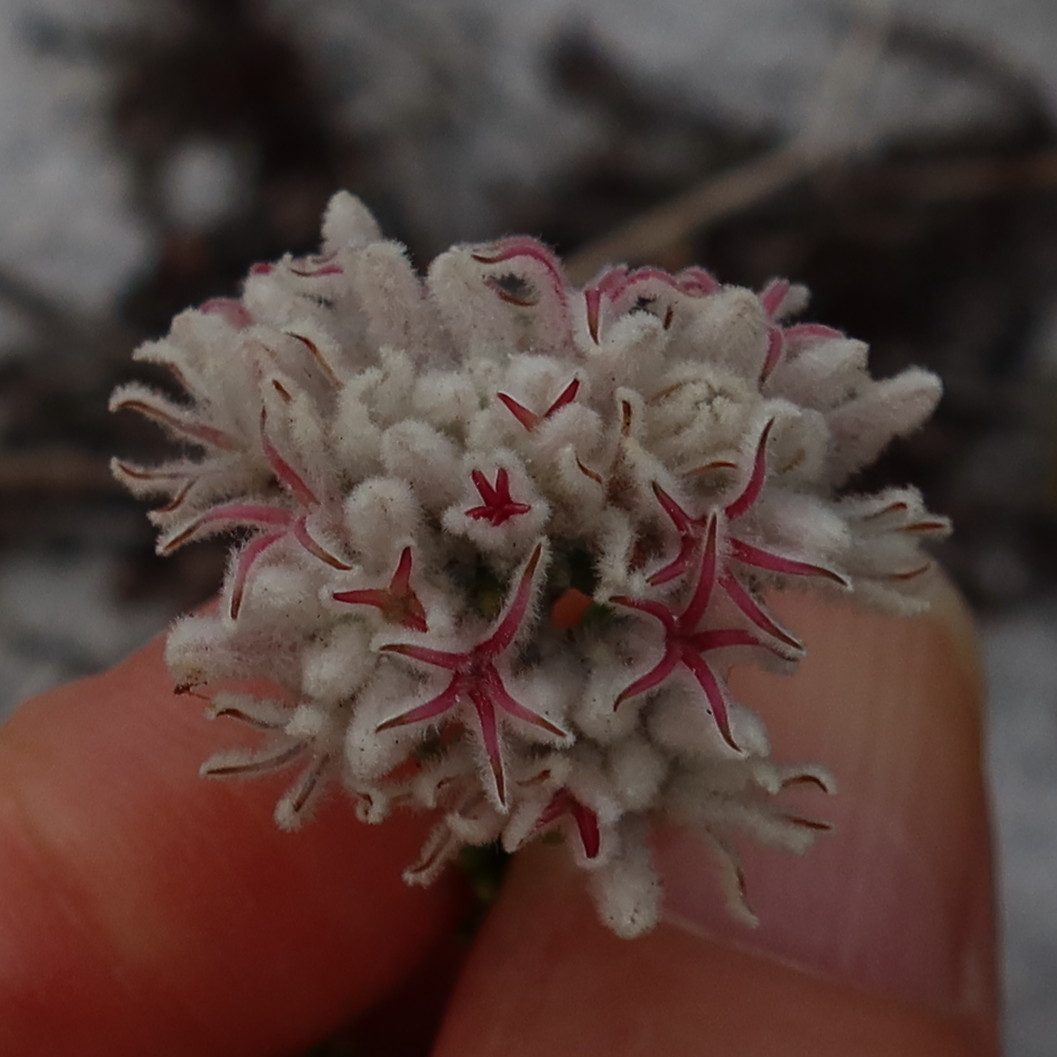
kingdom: Plantae
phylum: Tracheophyta
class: Magnoliopsida
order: Rosales
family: Rhamnaceae
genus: Trichocephalus
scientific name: Trichocephalus stipularis
